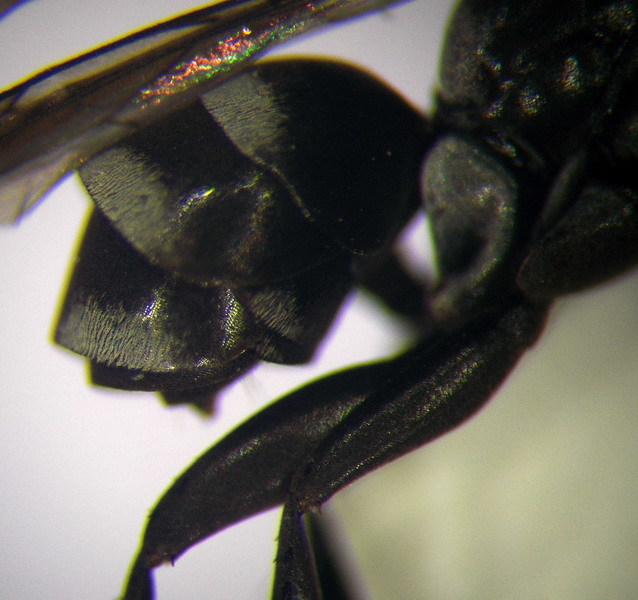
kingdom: Animalia
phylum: Arthropoda
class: Insecta
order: Hymenoptera
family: Pompilidae
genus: Amblyellus
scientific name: Amblyellus hasdrubal
